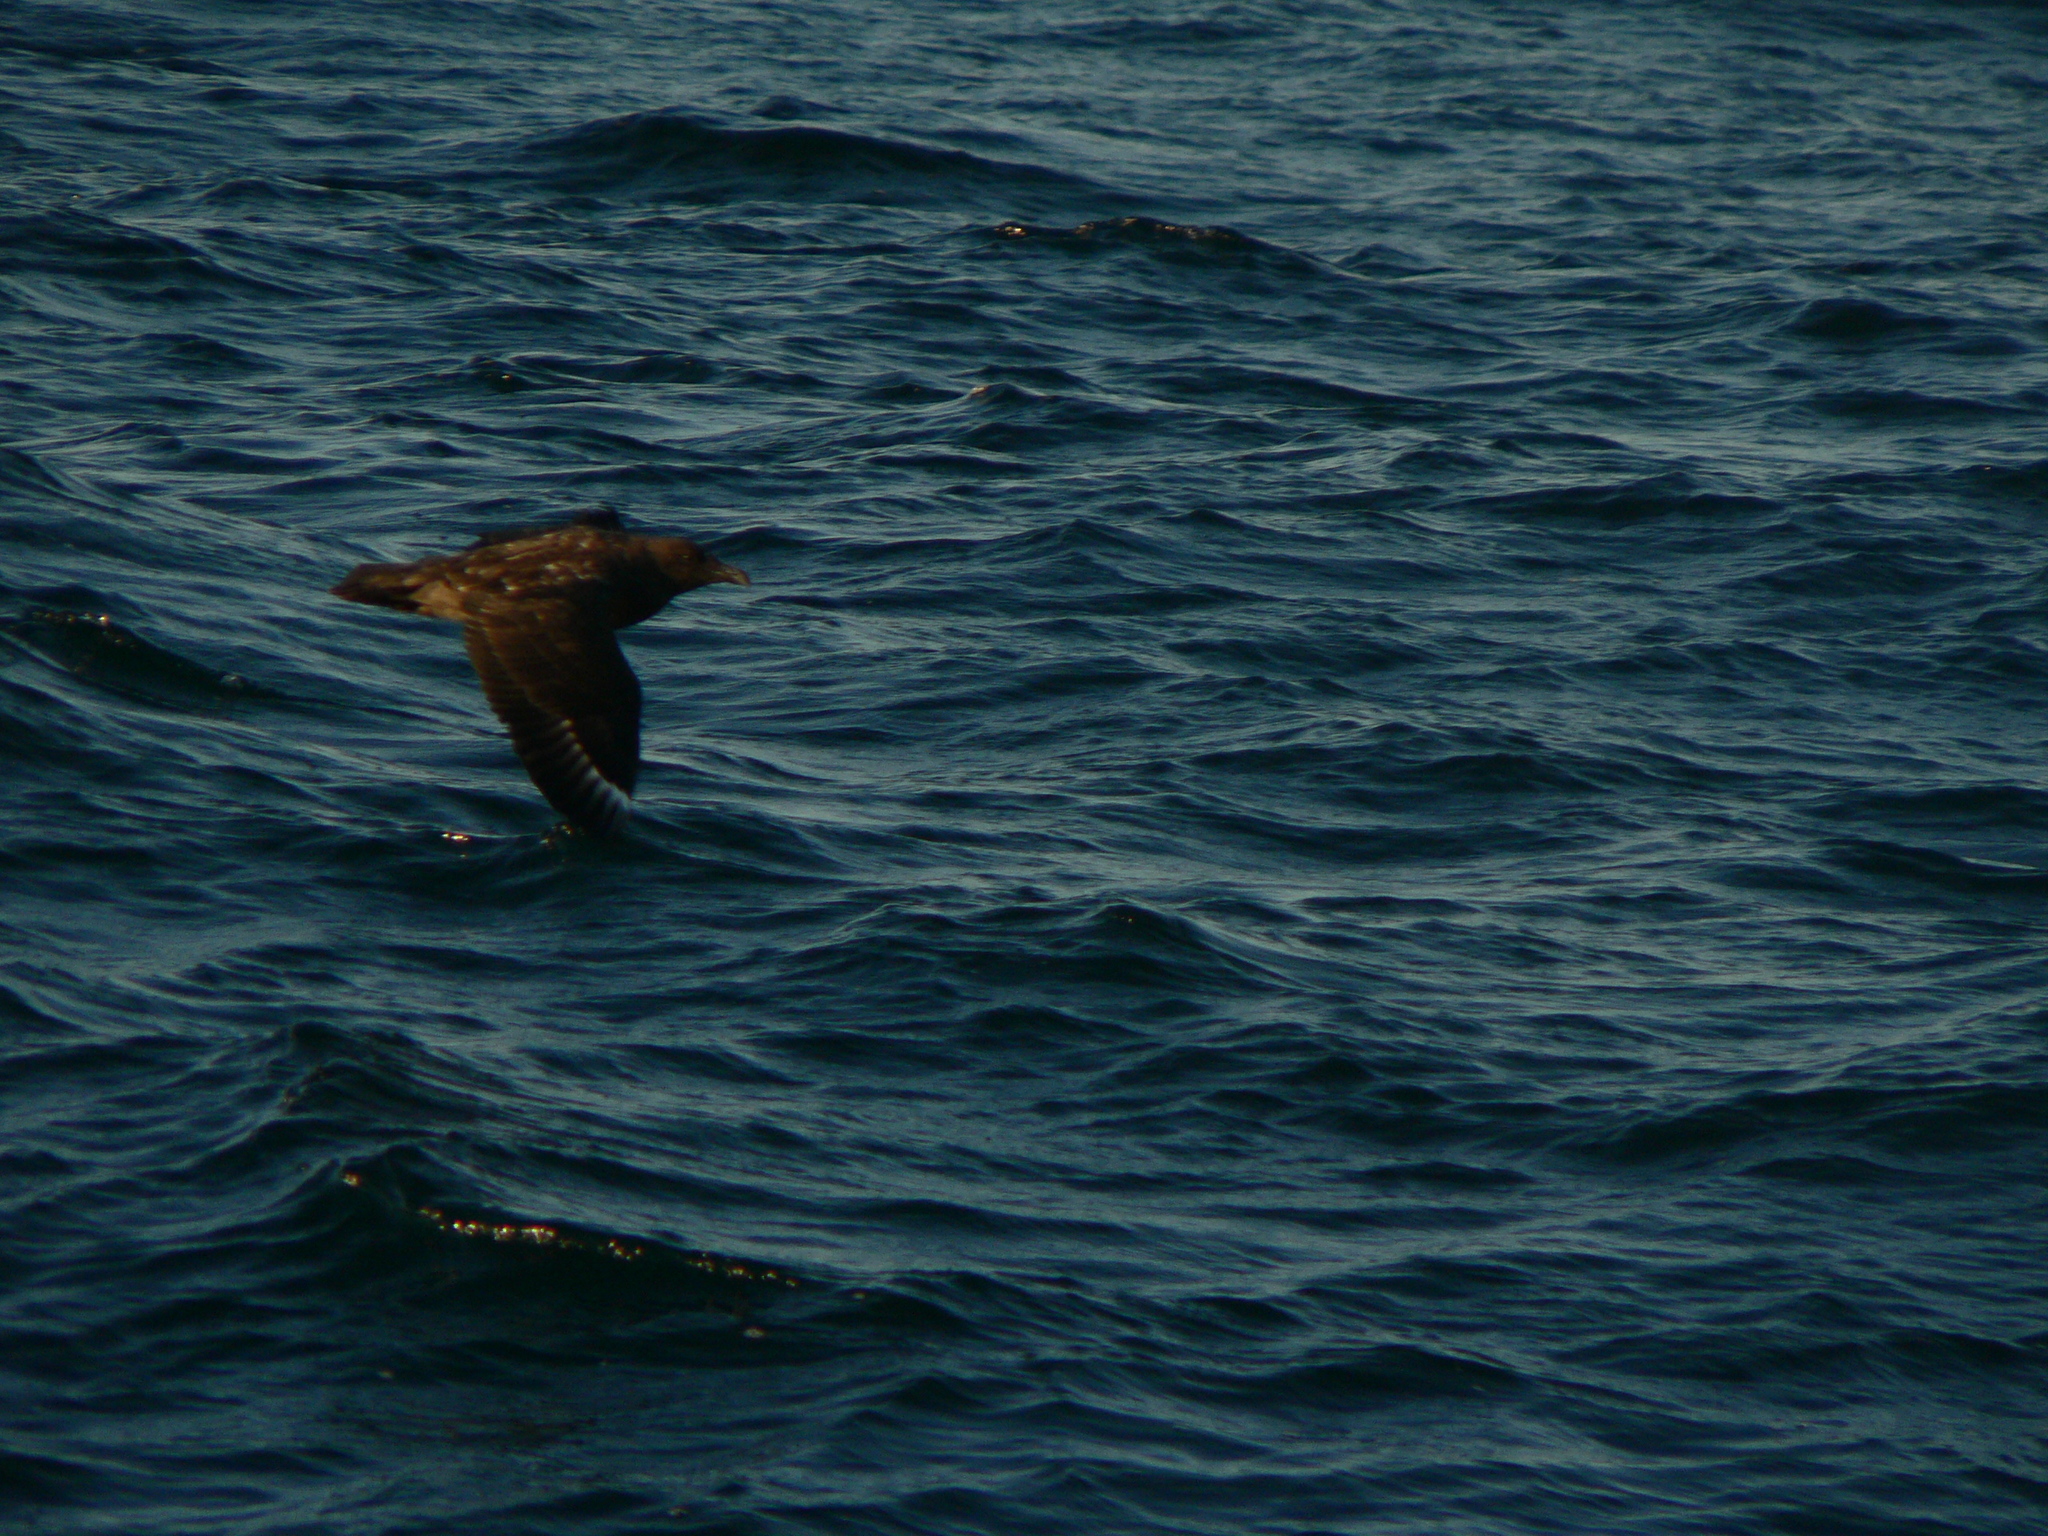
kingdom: Animalia
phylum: Chordata
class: Aves
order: Charadriiformes
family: Stercorariidae
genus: Stercorarius
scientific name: Stercorarius antarcticus
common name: Brown skua
